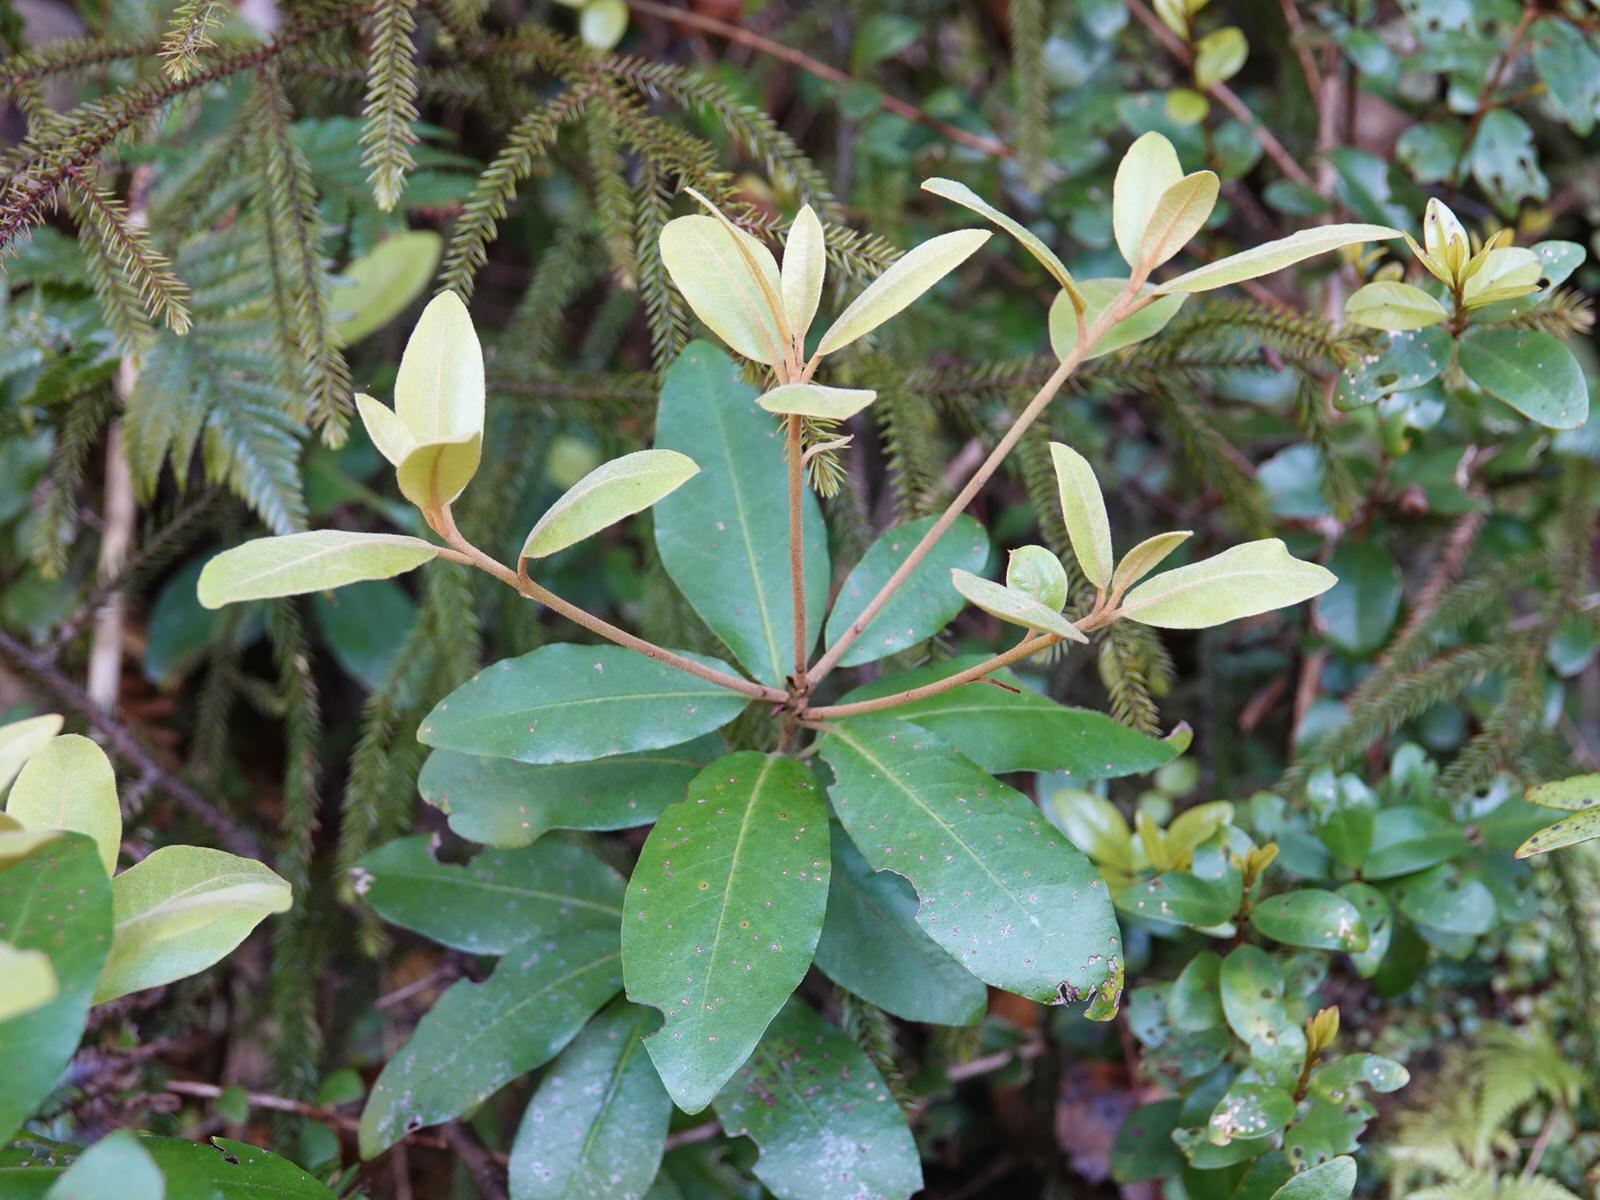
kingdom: Plantae
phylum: Tracheophyta
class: Magnoliopsida
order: Apiales
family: Pittosporaceae
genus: Pittosporum
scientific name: Pittosporum ellipticum
